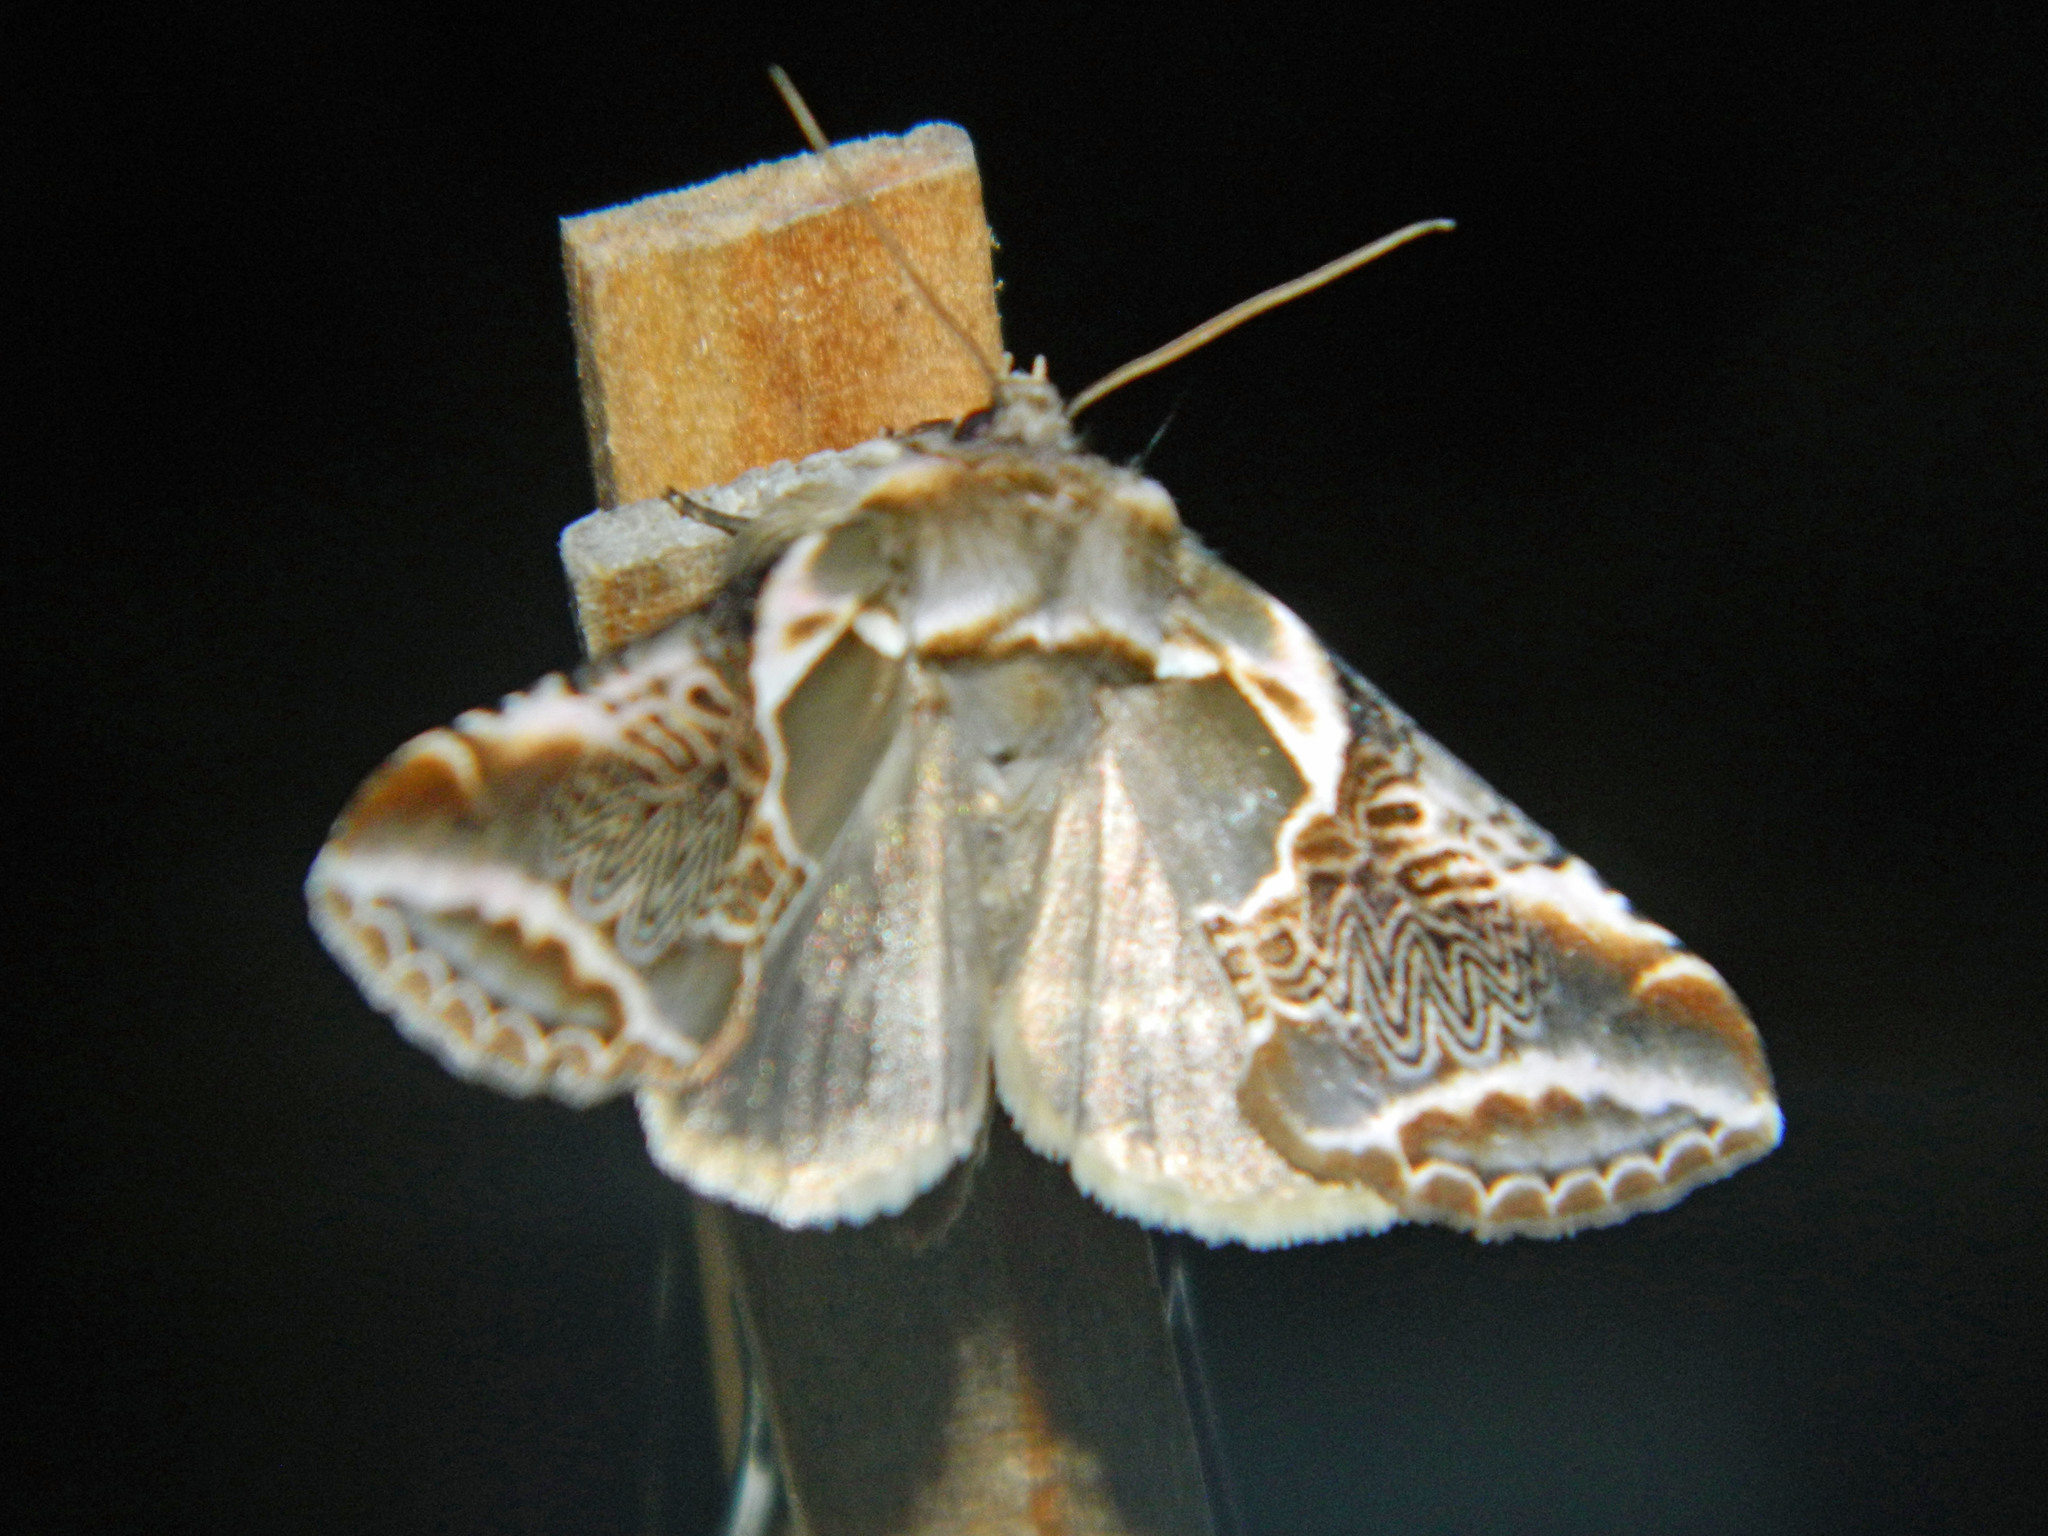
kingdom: Animalia
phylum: Arthropoda
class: Insecta
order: Lepidoptera
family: Drepanidae
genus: Habrosyne
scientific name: Habrosyne scripta
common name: Lettered habrosyne moth
